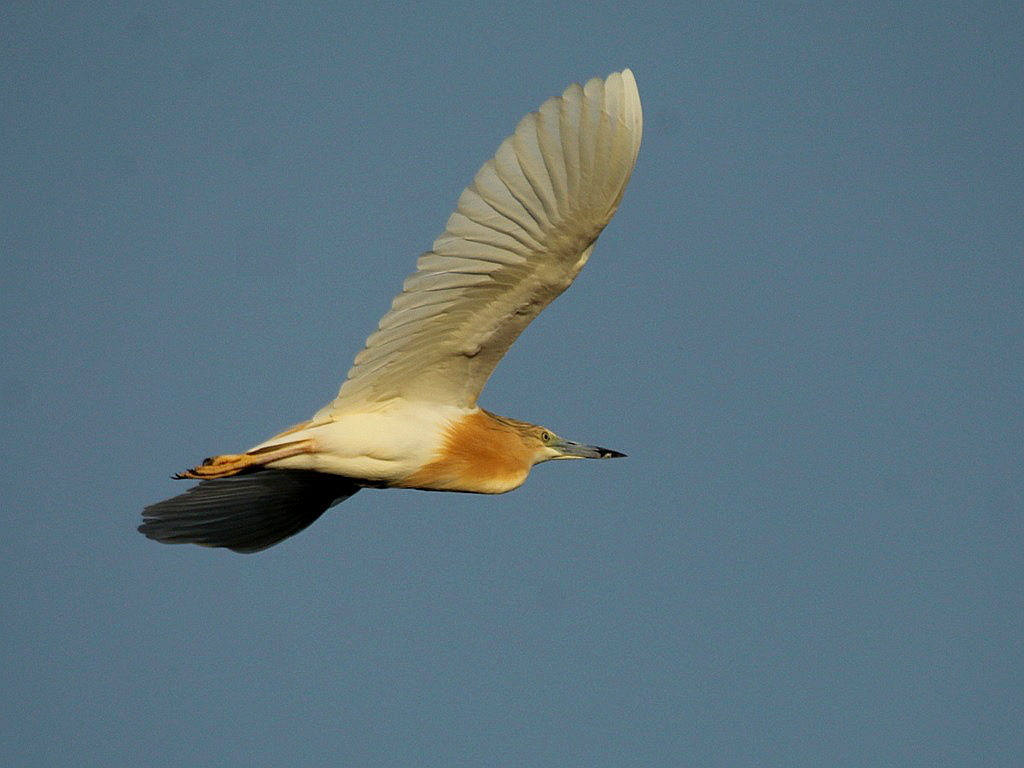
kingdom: Animalia
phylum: Chordata
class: Aves
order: Pelecaniformes
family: Ardeidae
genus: Ardeola
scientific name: Ardeola ralloides
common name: Squacco heron
